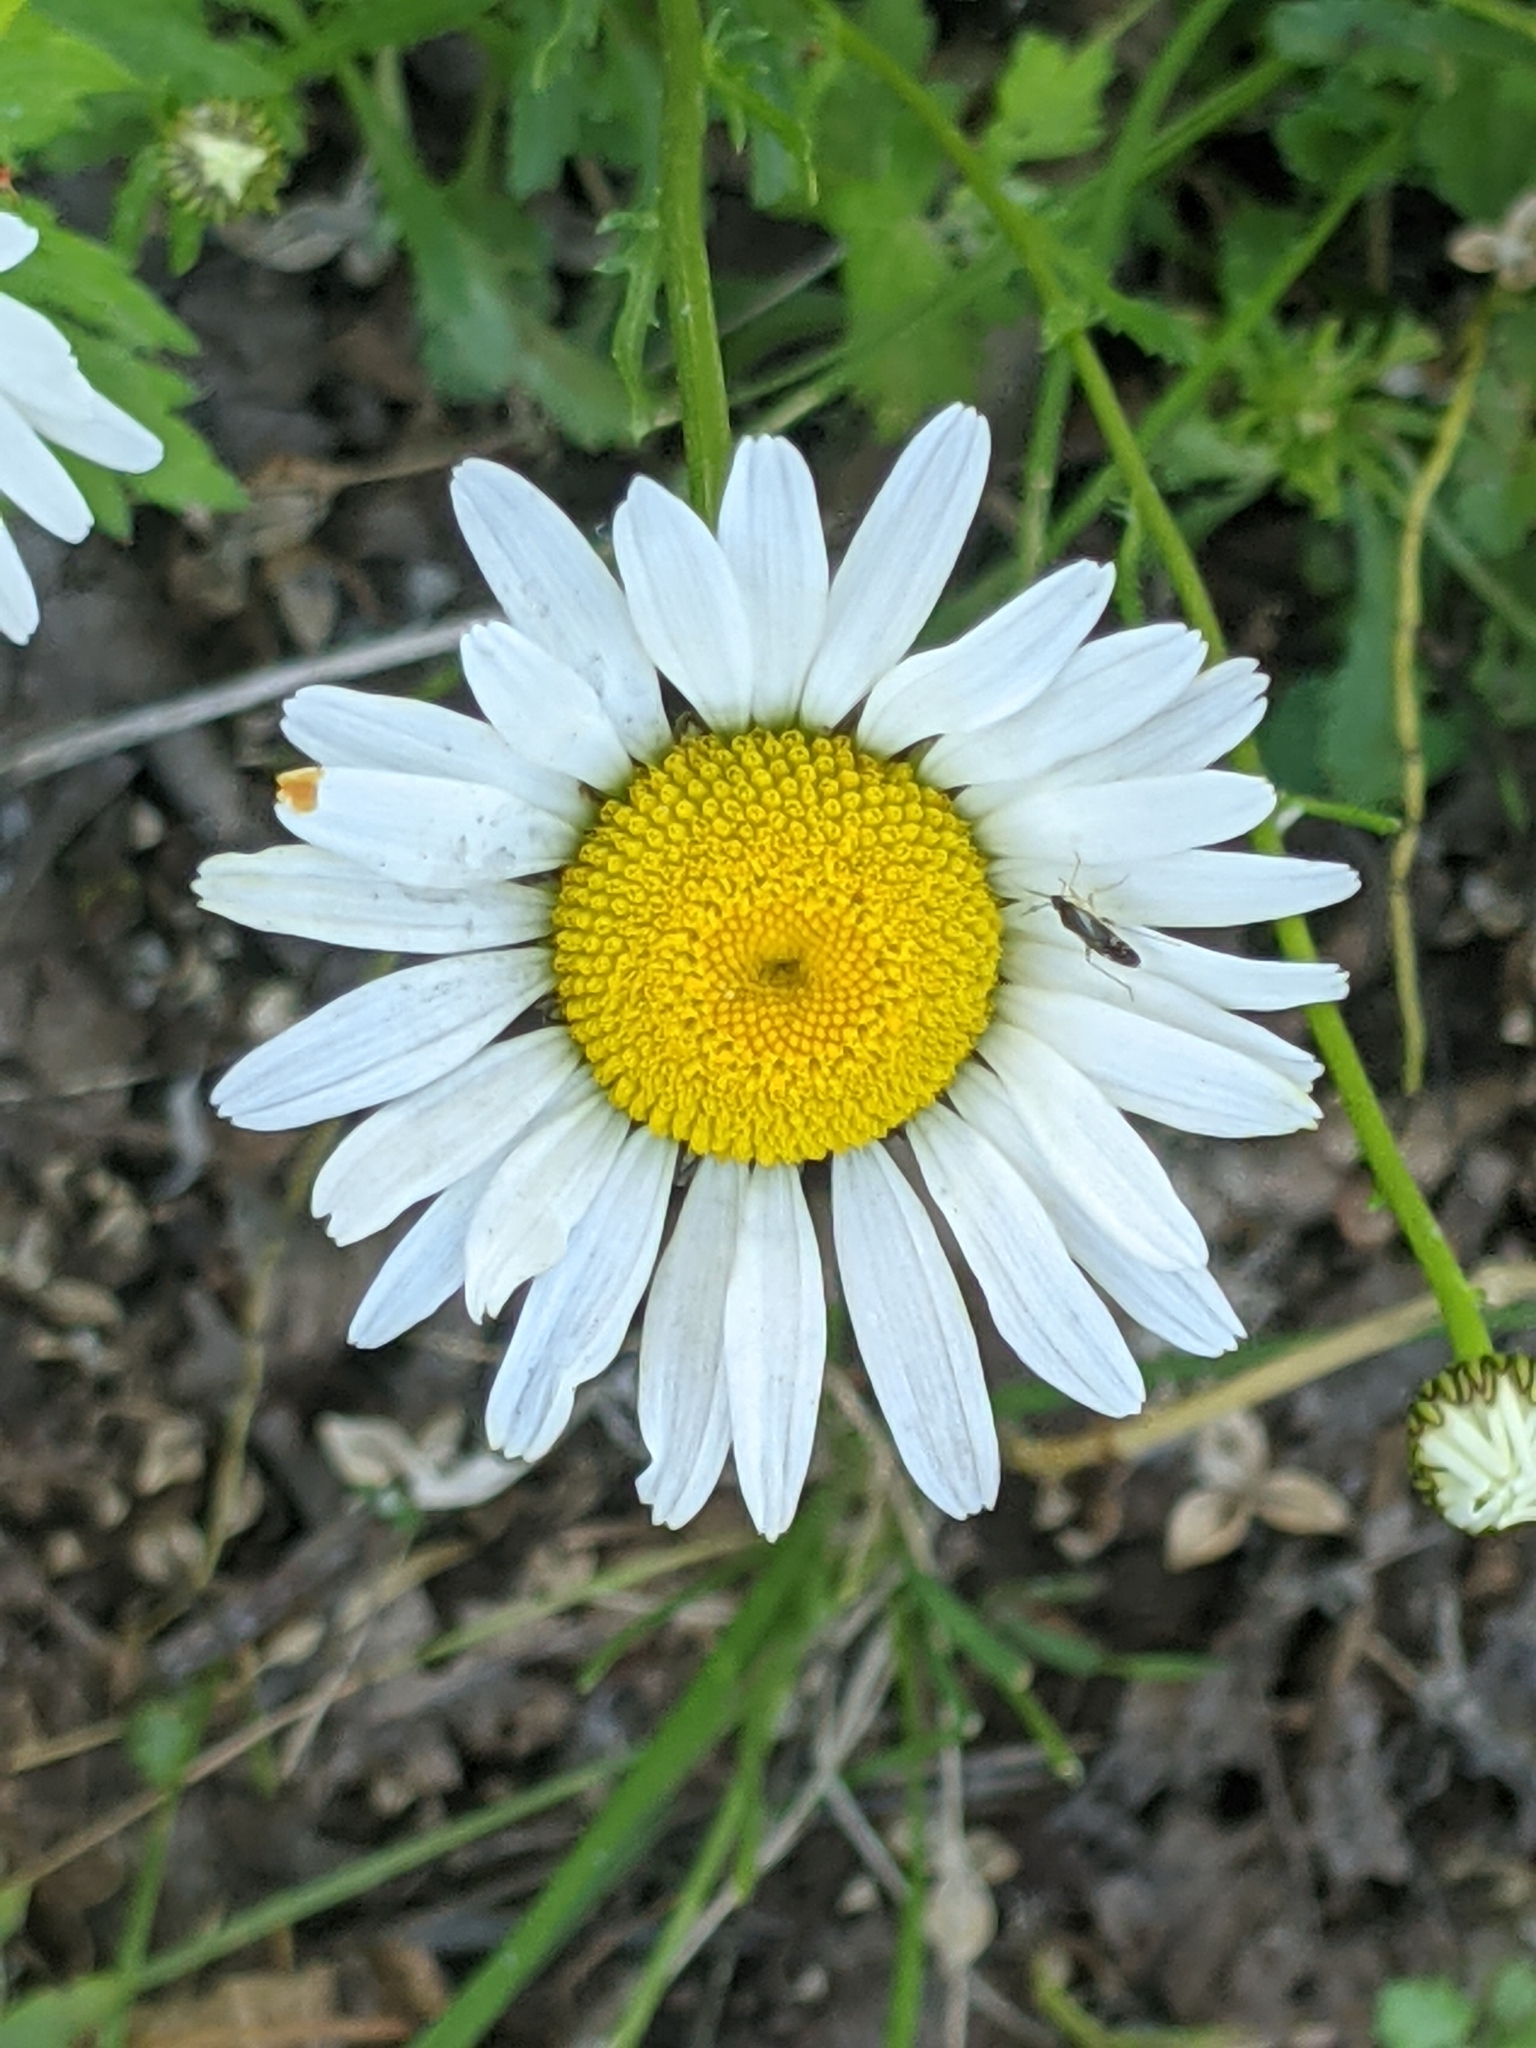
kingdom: Plantae
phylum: Tracheophyta
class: Magnoliopsida
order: Asterales
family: Asteraceae
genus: Leucanthemum
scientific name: Leucanthemum vulgare
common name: Oxeye daisy
